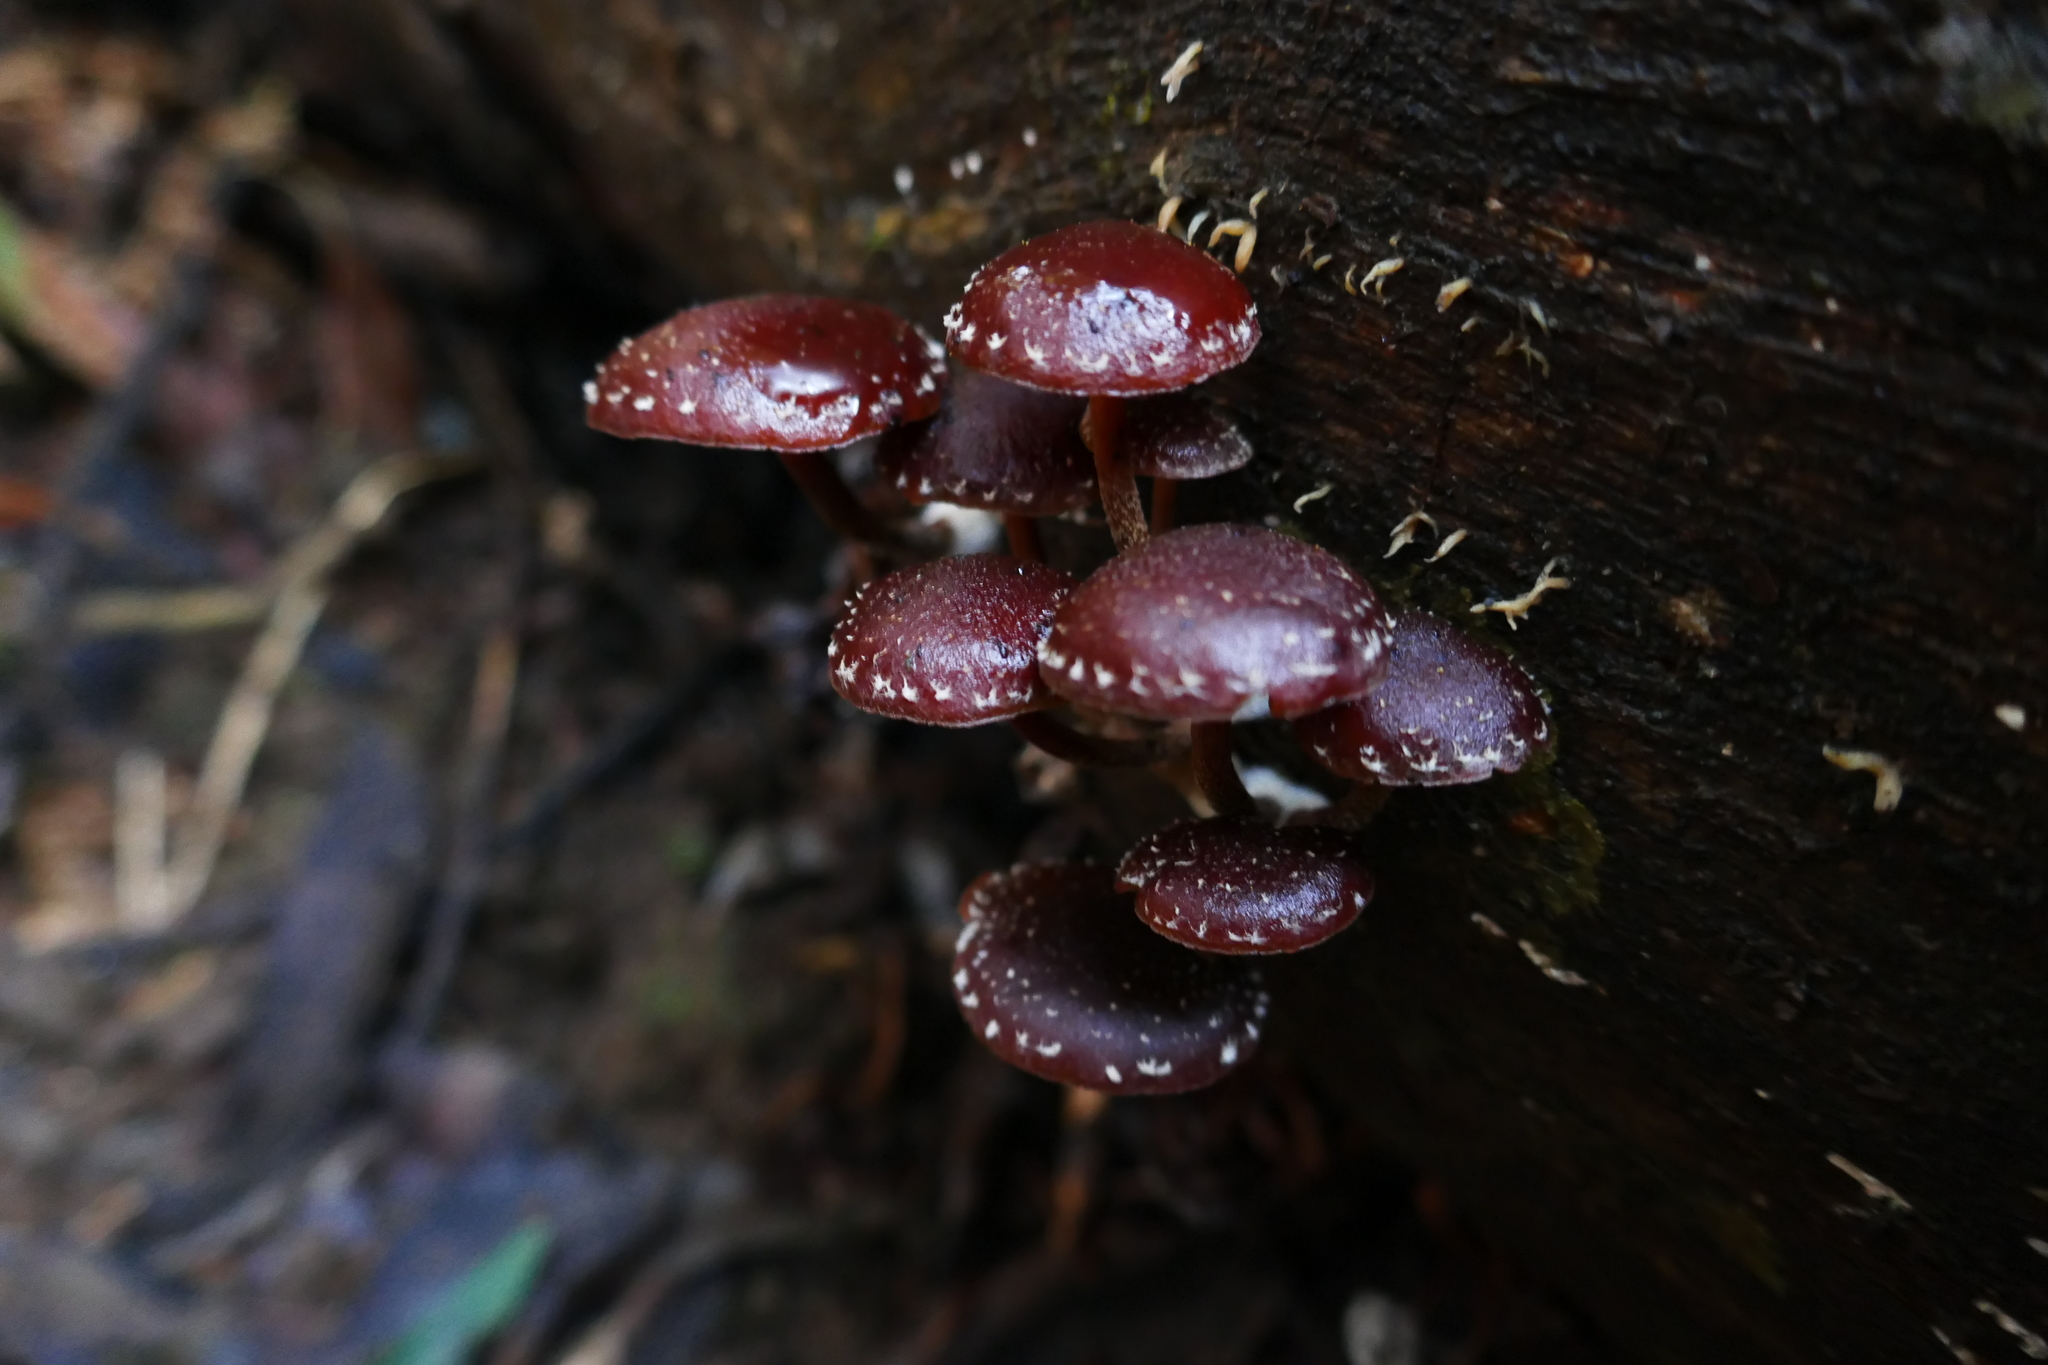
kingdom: Fungi
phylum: Basidiomycota
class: Agaricomycetes
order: Agaricales
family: Strophariaceae
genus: Hypholoma
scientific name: Hypholoma brunneum
